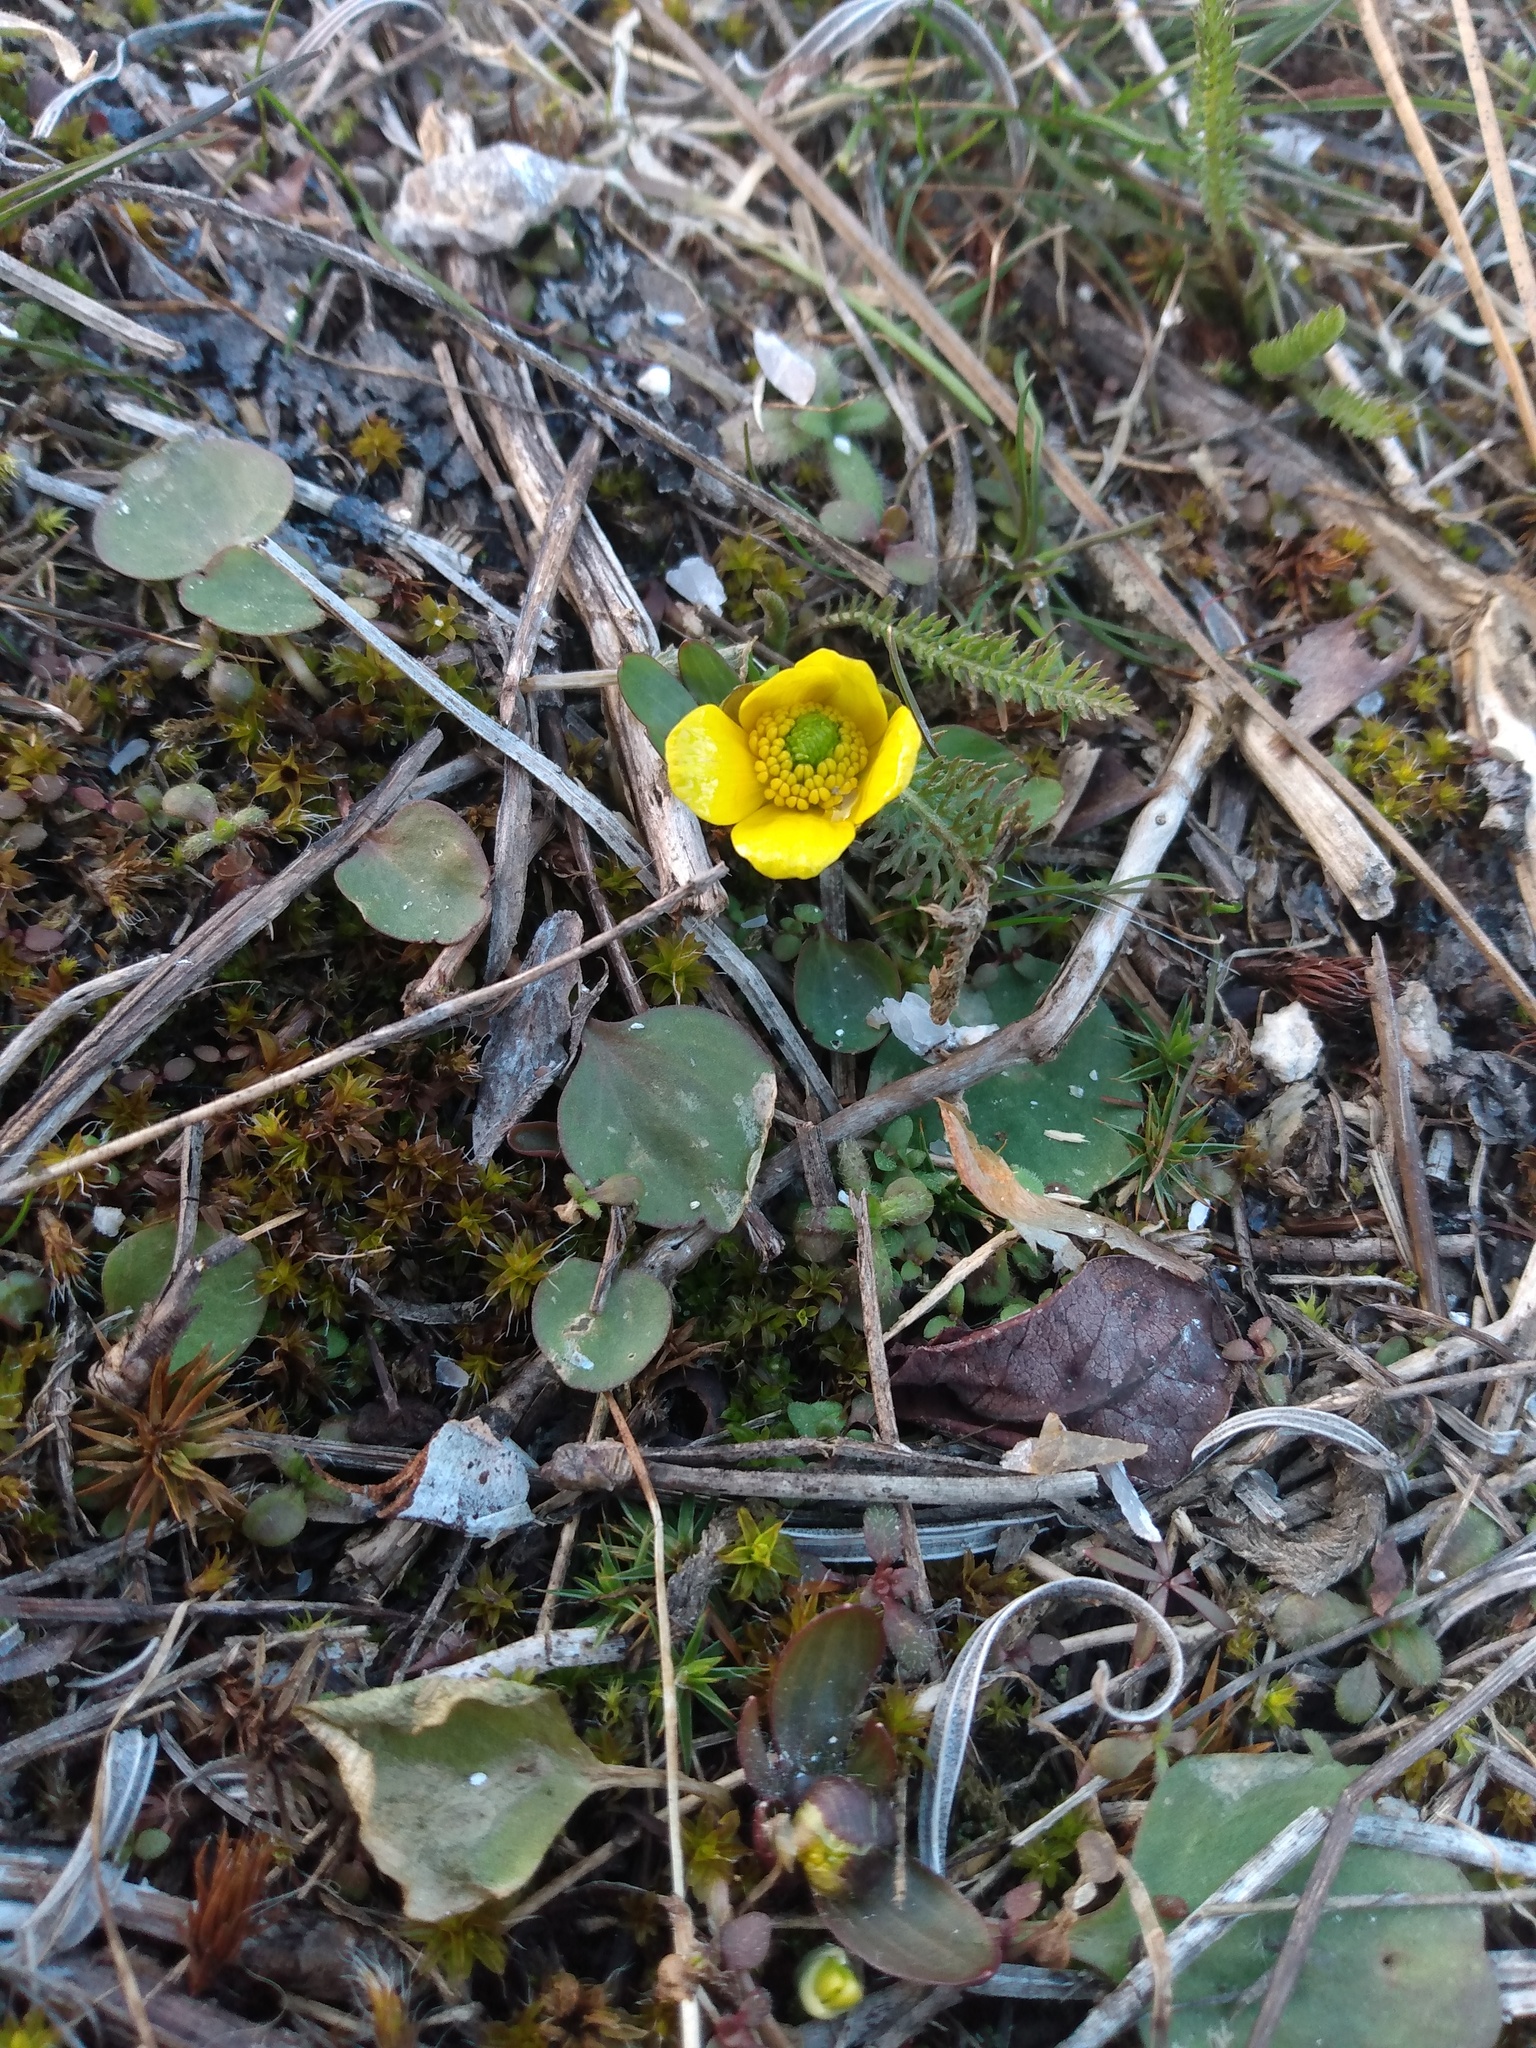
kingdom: Plantae
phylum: Tracheophyta
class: Magnoliopsida
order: Ranunculales
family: Ranunculaceae
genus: Ranunculus
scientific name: Ranunculus glaberrimus
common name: Sagebrush buttercup
